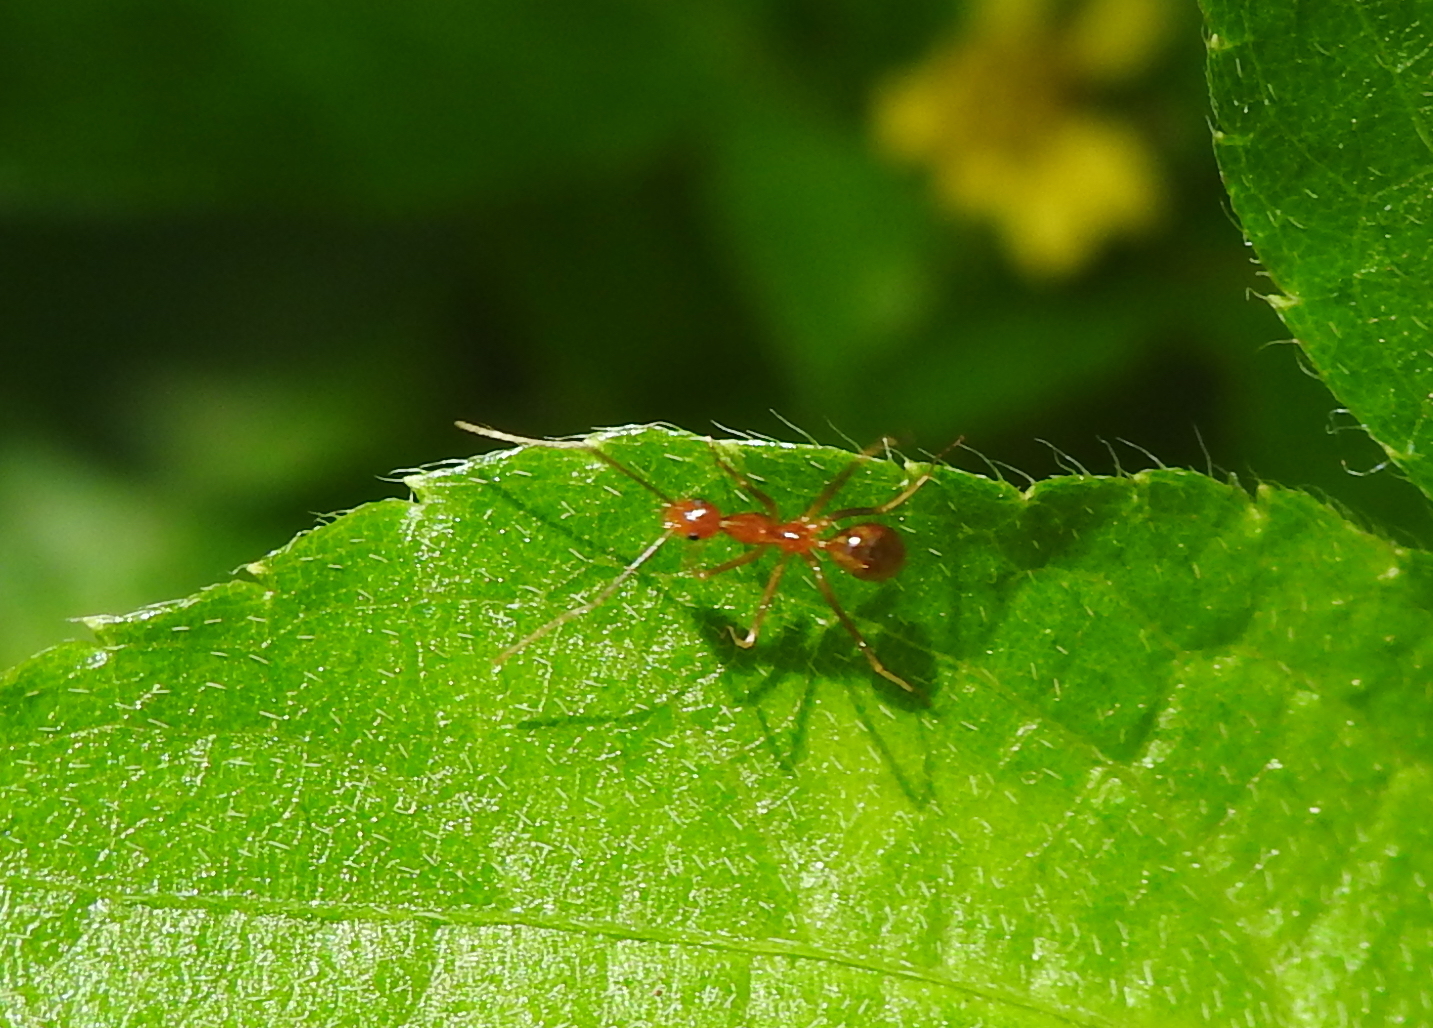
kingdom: Animalia
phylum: Arthropoda
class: Insecta
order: Hymenoptera
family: Formicidae
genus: Anoplolepis
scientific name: Anoplolepis gracilipes
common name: Ant
